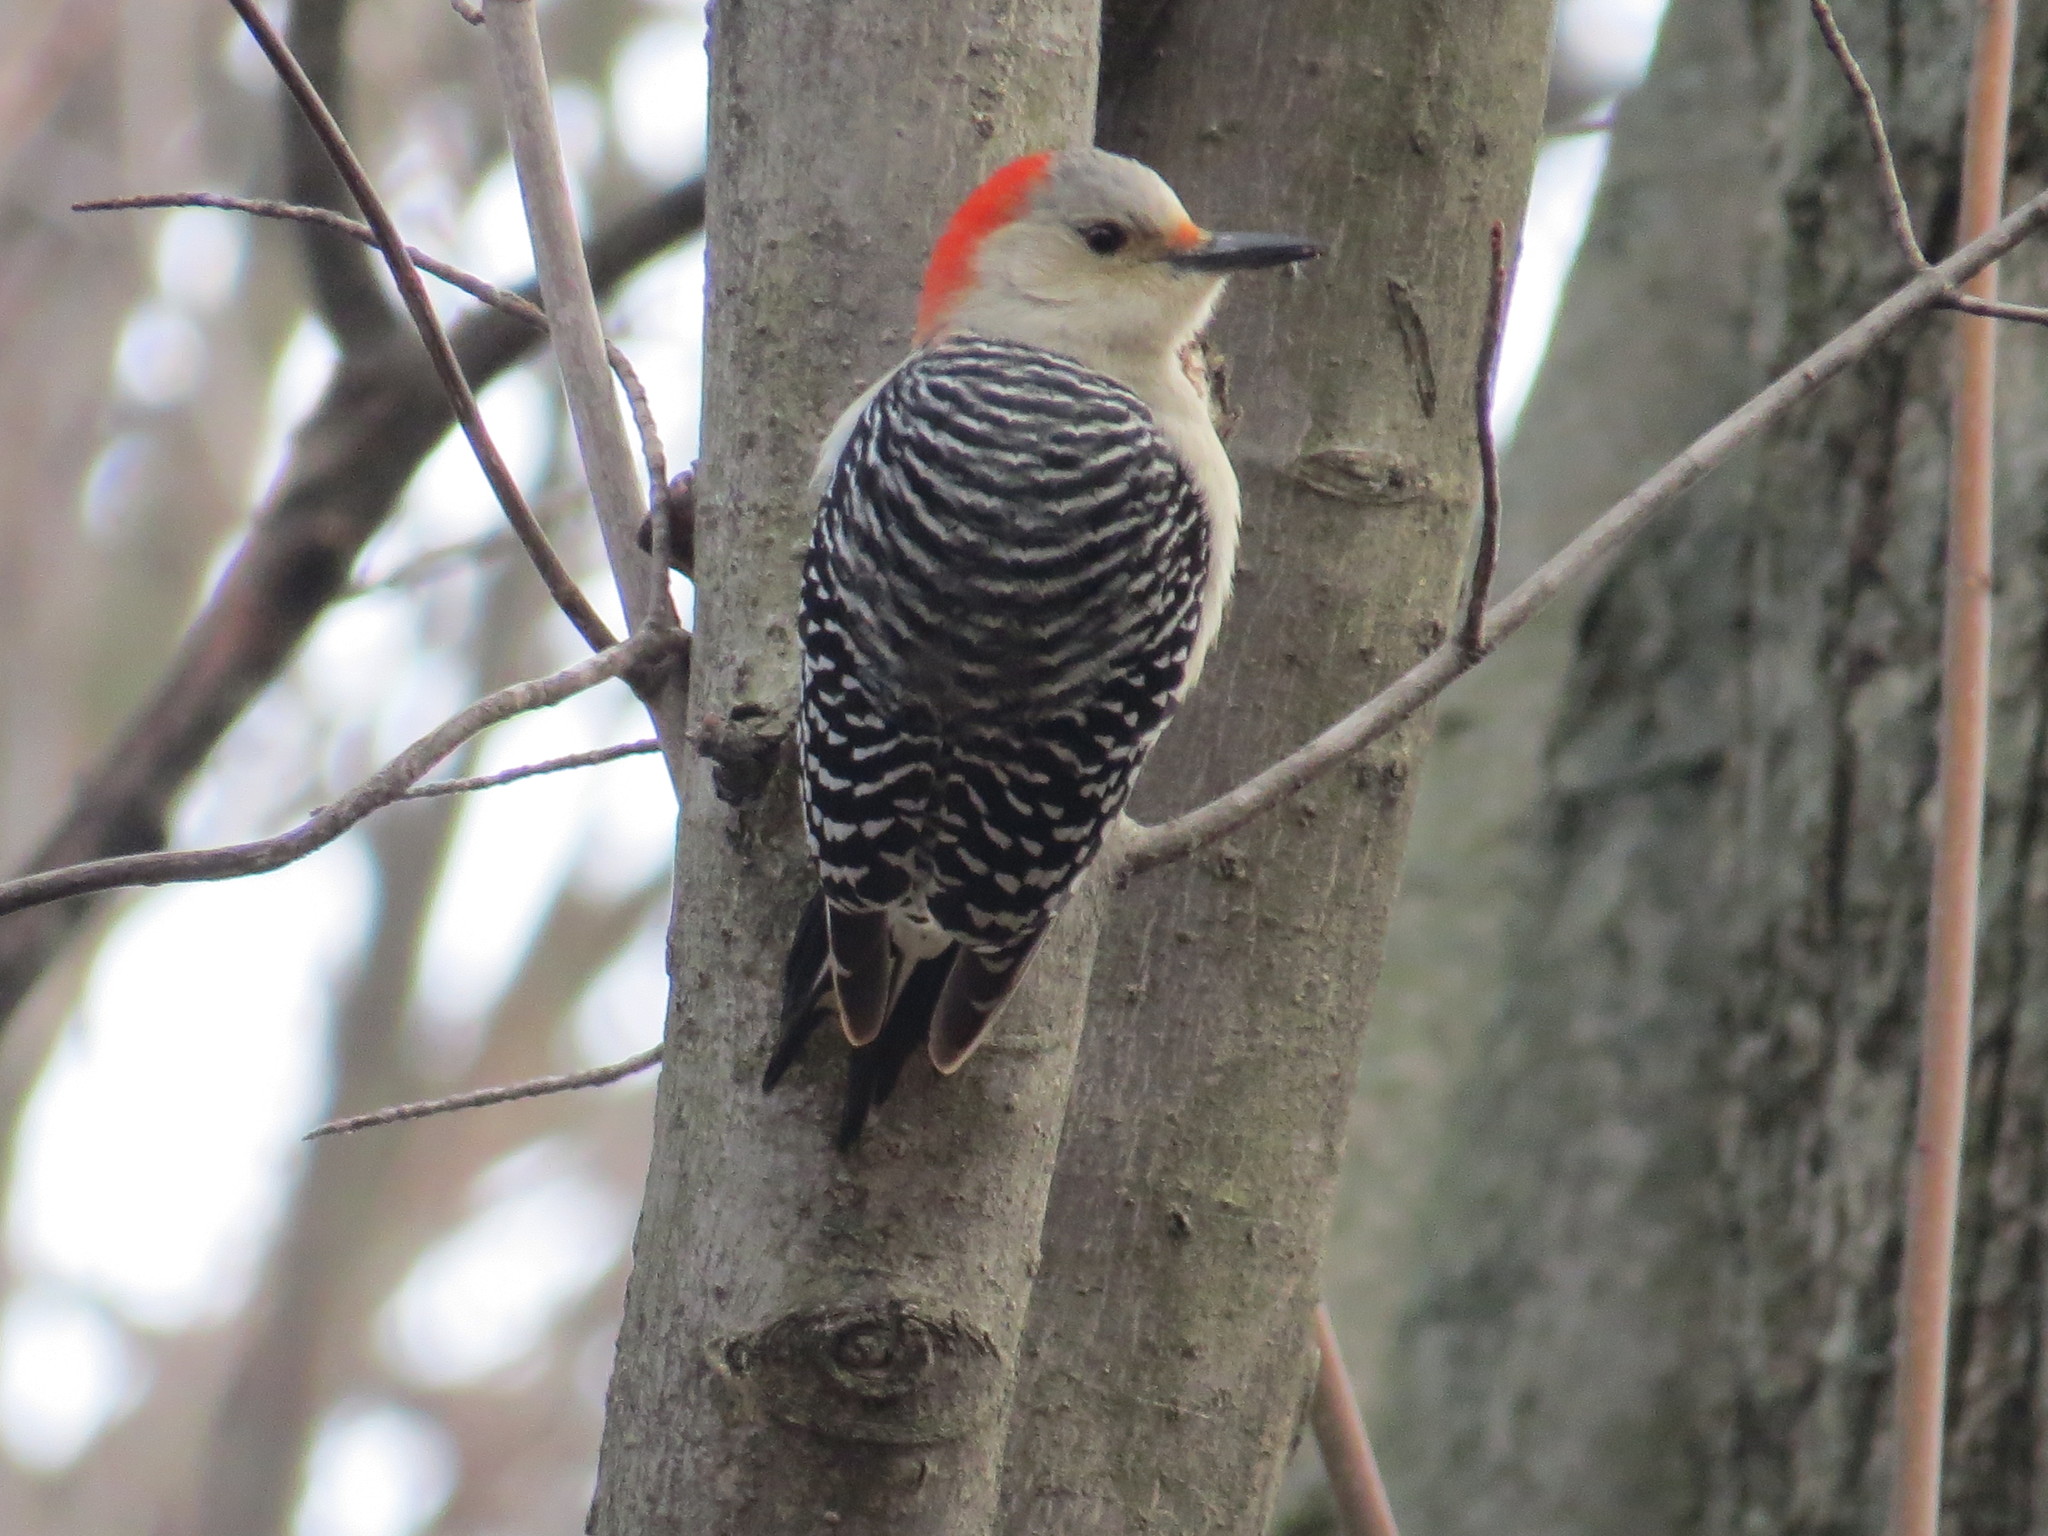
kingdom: Animalia
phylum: Chordata
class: Aves
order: Piciformes
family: Picidae
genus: Melanerpes
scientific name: Melanerpes carolinus
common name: Red-bellied woodpecker
